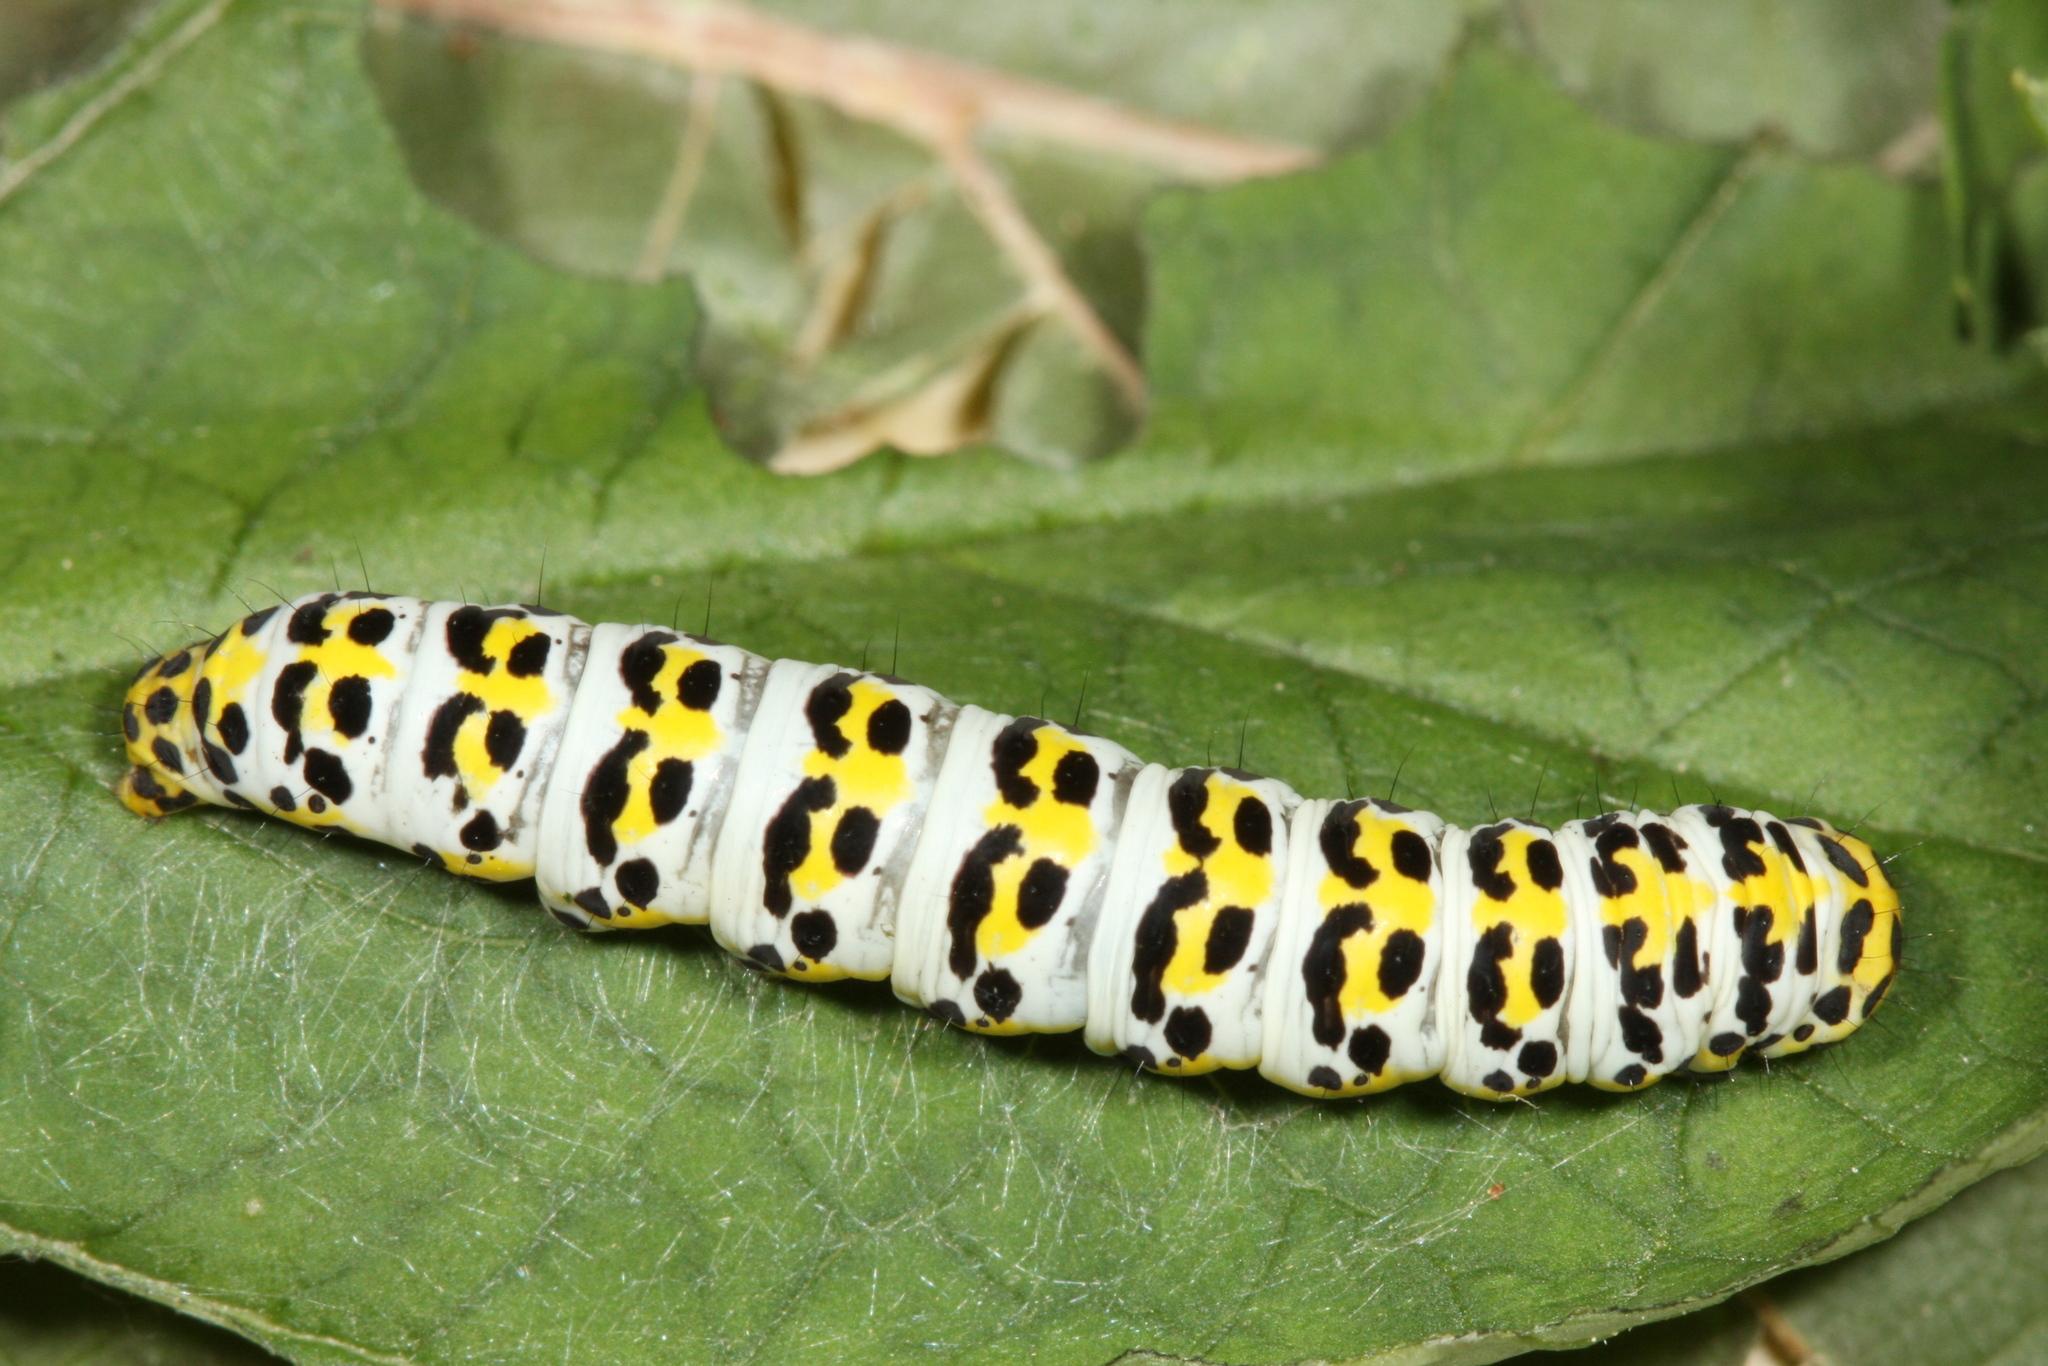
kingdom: Animalia
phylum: Arthropoda
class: Insecta
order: Lepidoptera
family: Noctuidae
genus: Shargacucullia
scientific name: Shargacucullia scrophulariae
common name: Water betony
